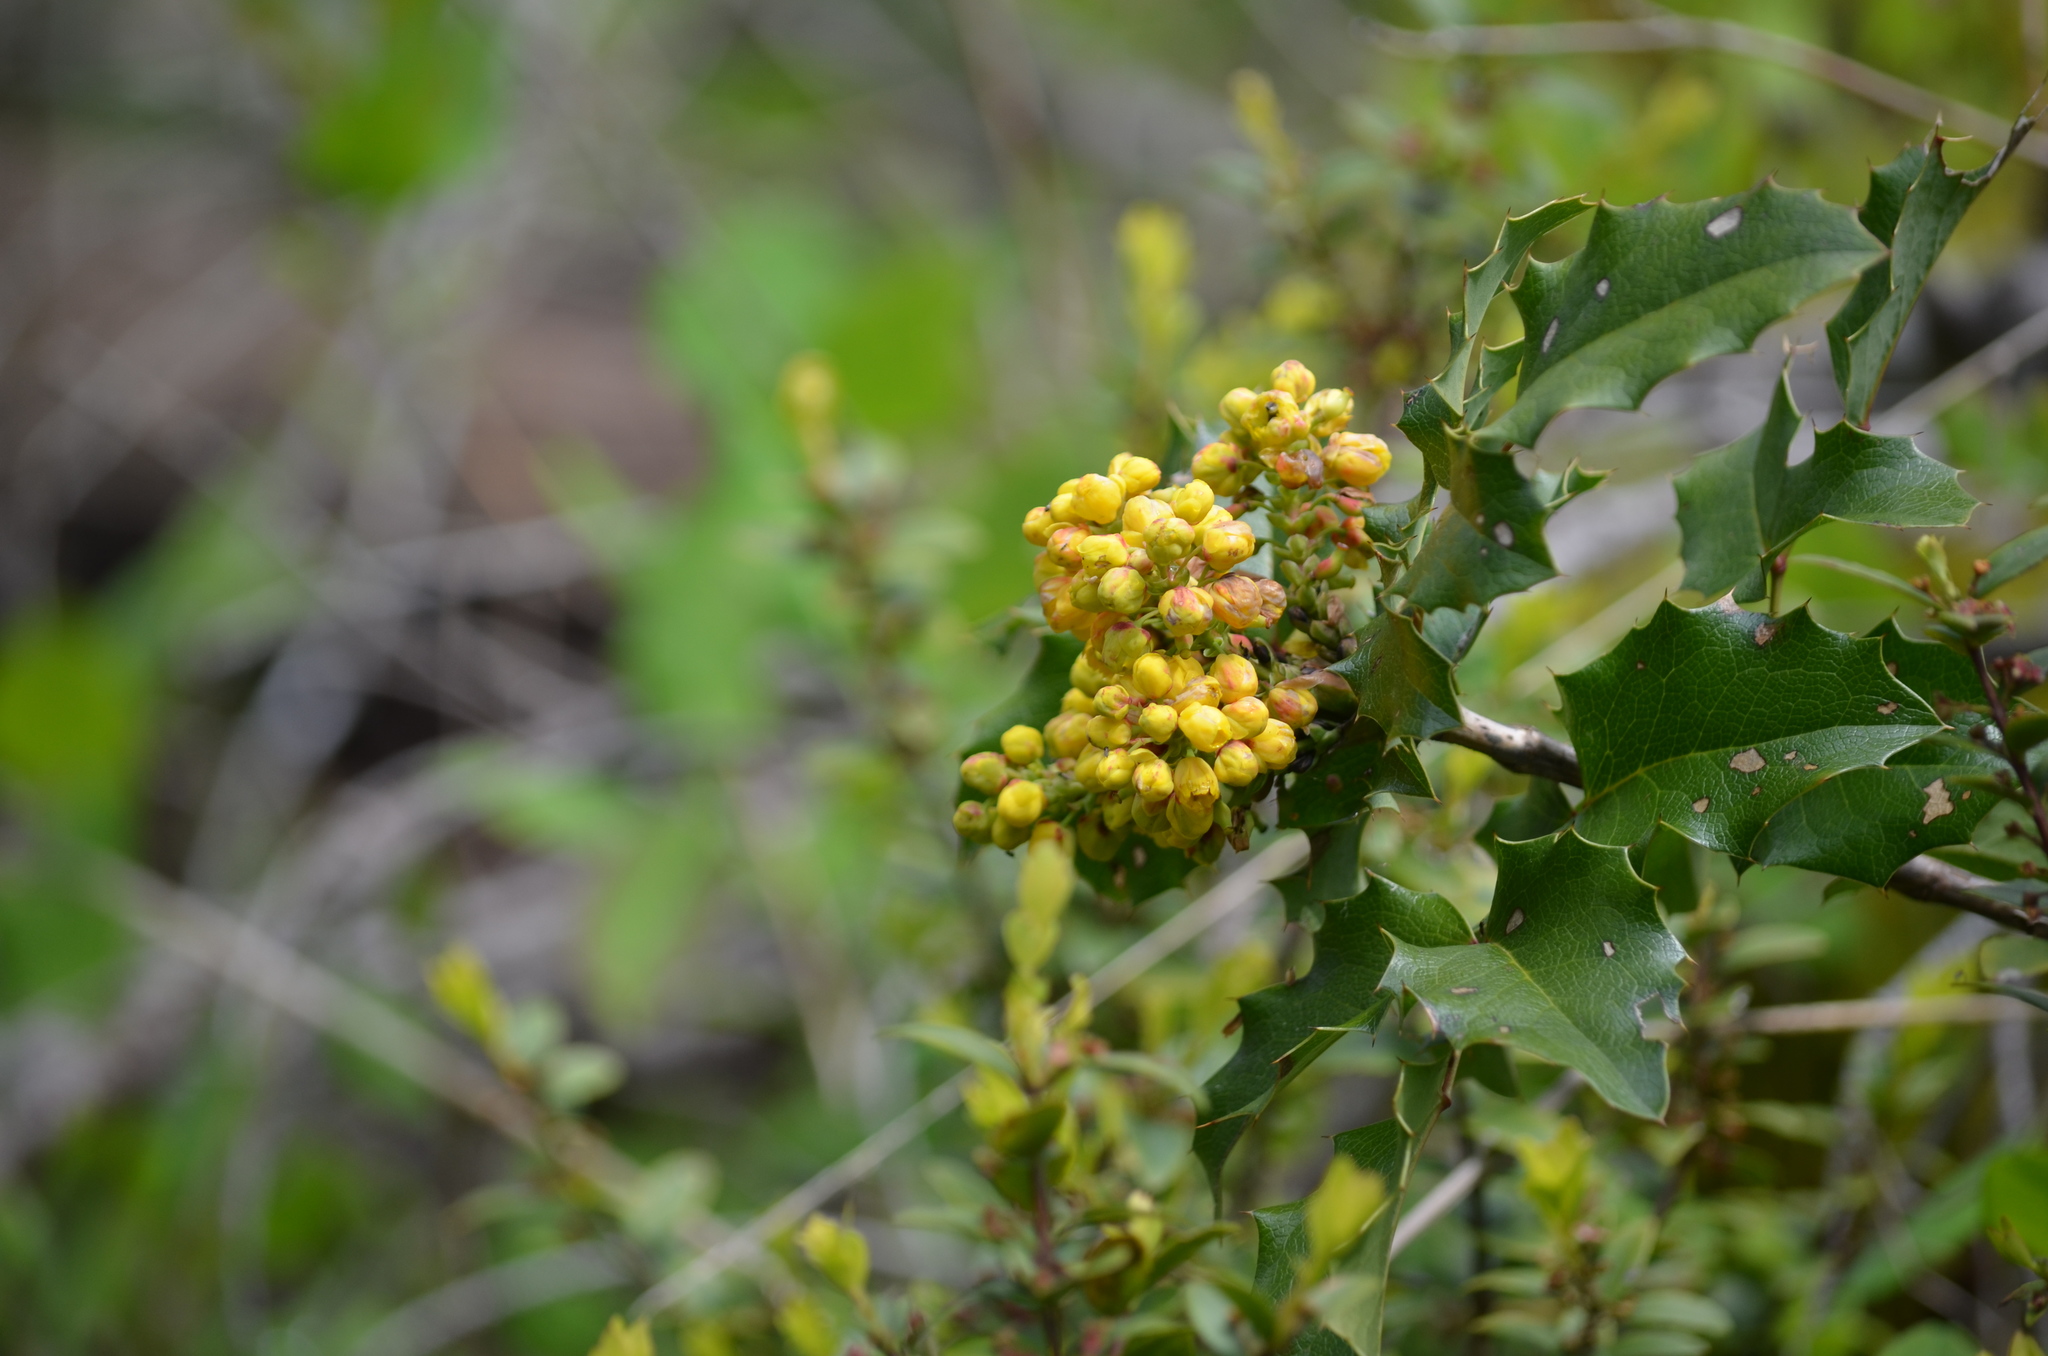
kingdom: Plantae
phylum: Tracheophyta
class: Magnoliopsida
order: Ranunculales
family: Berberidaceae
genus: Mahonia
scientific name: Mahonia aquifolium
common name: Oregon-grape
